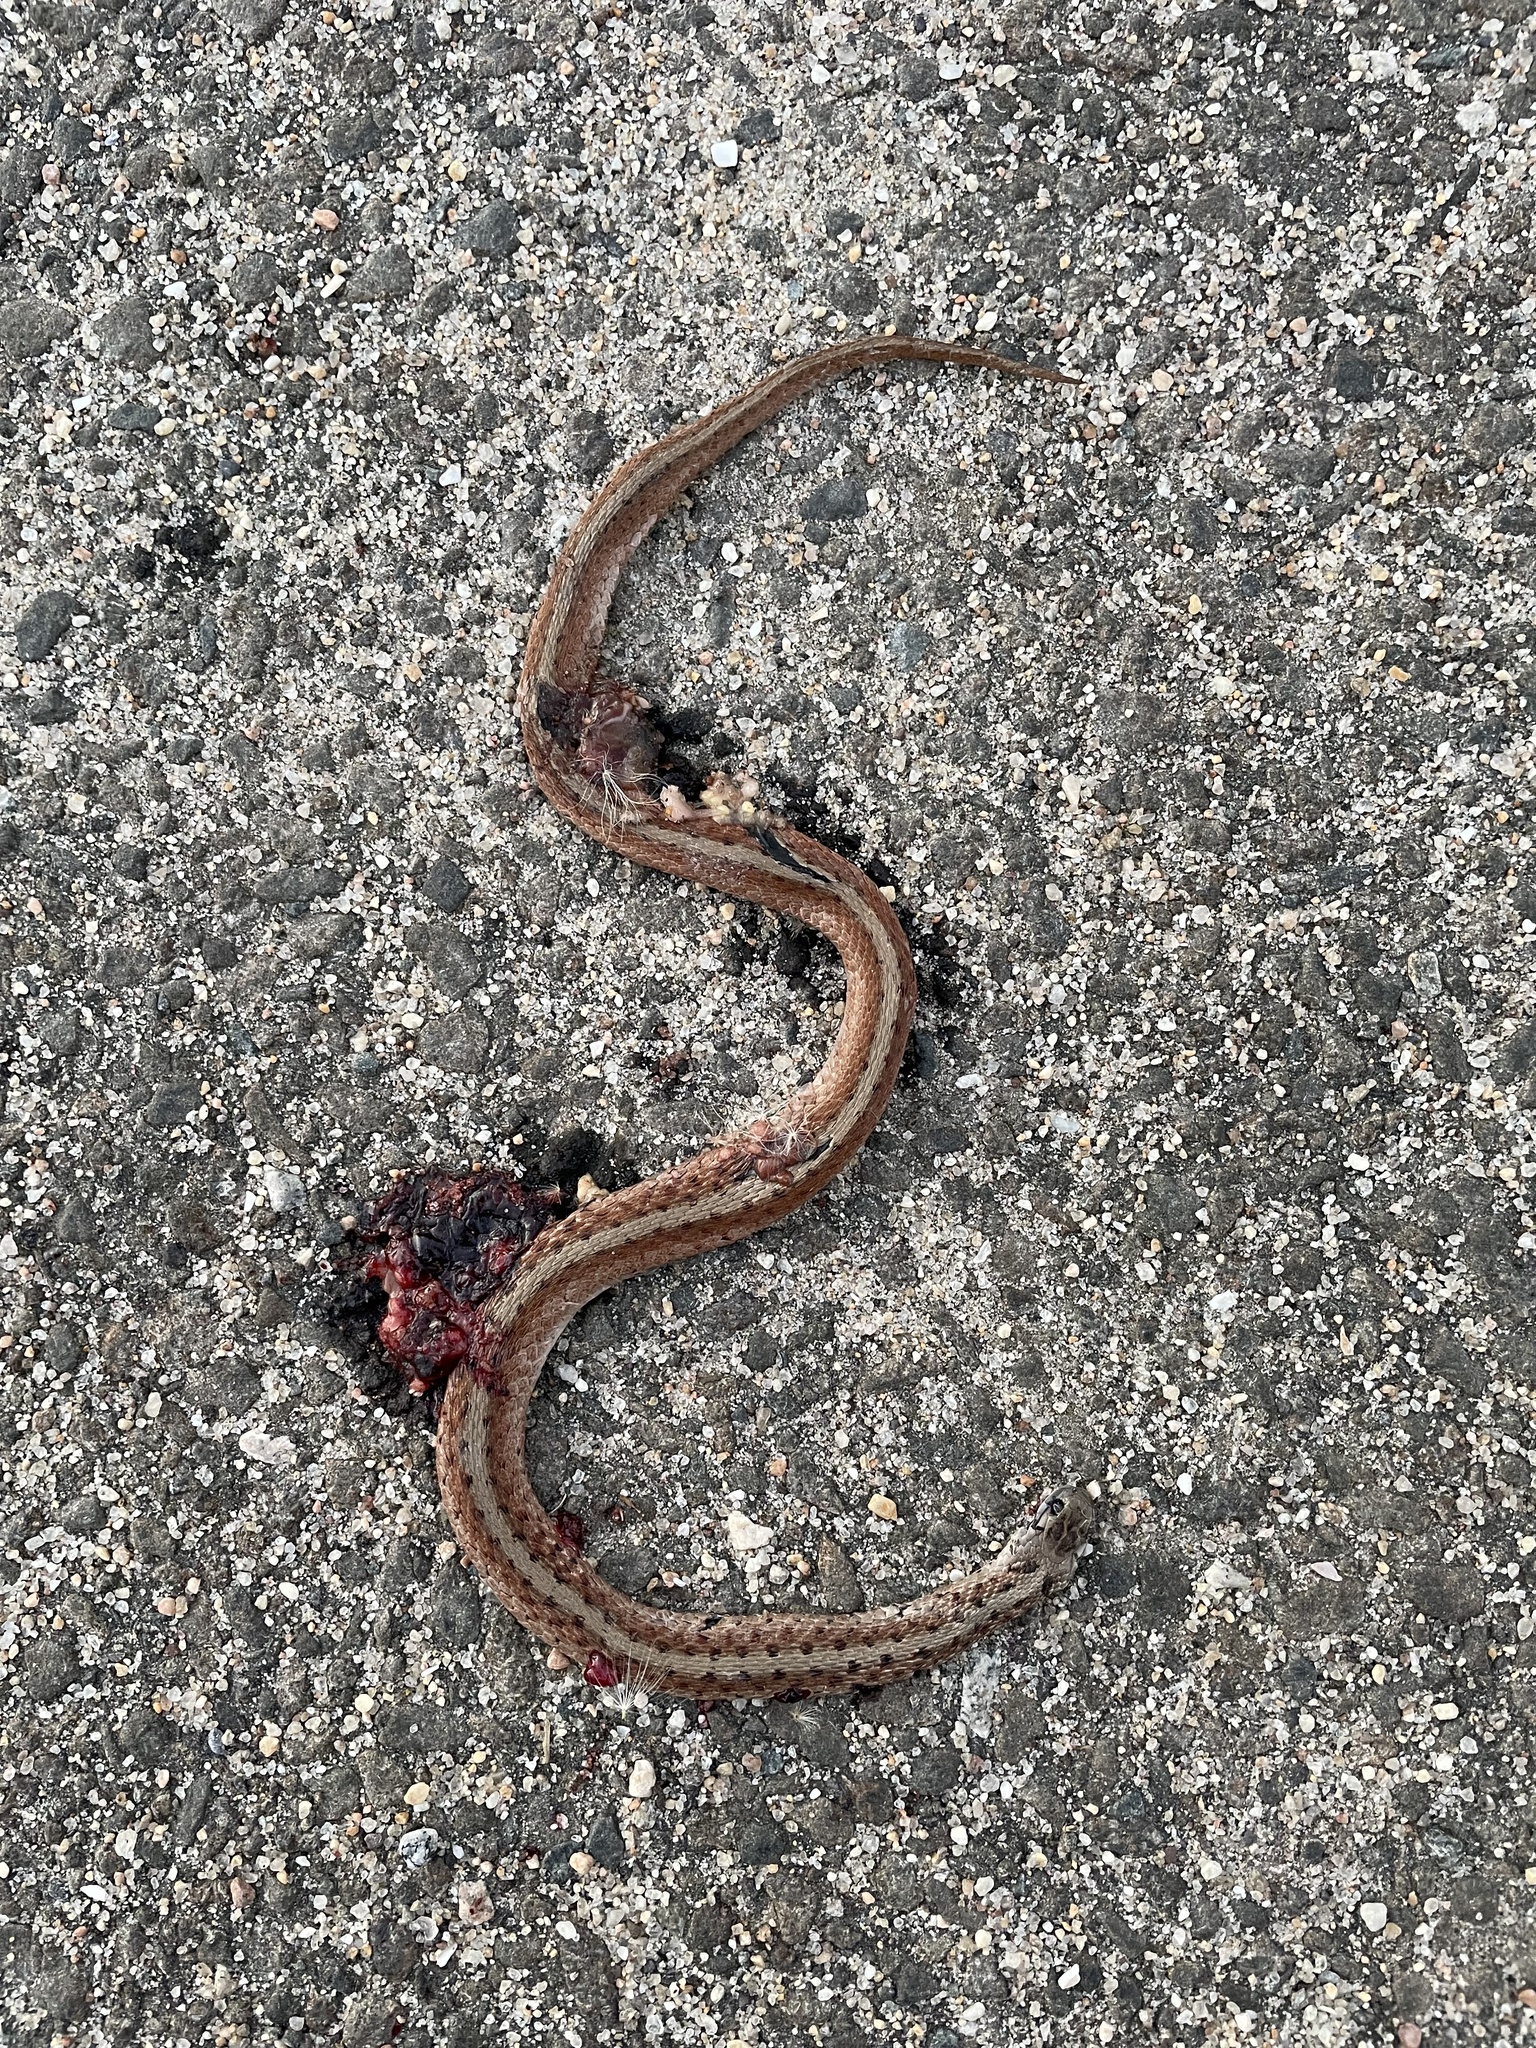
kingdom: Animalia
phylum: Chordata
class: Squamata
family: Colubridae
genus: Storeria
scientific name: Storeria dekayi
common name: (dekay’s) brown snake
